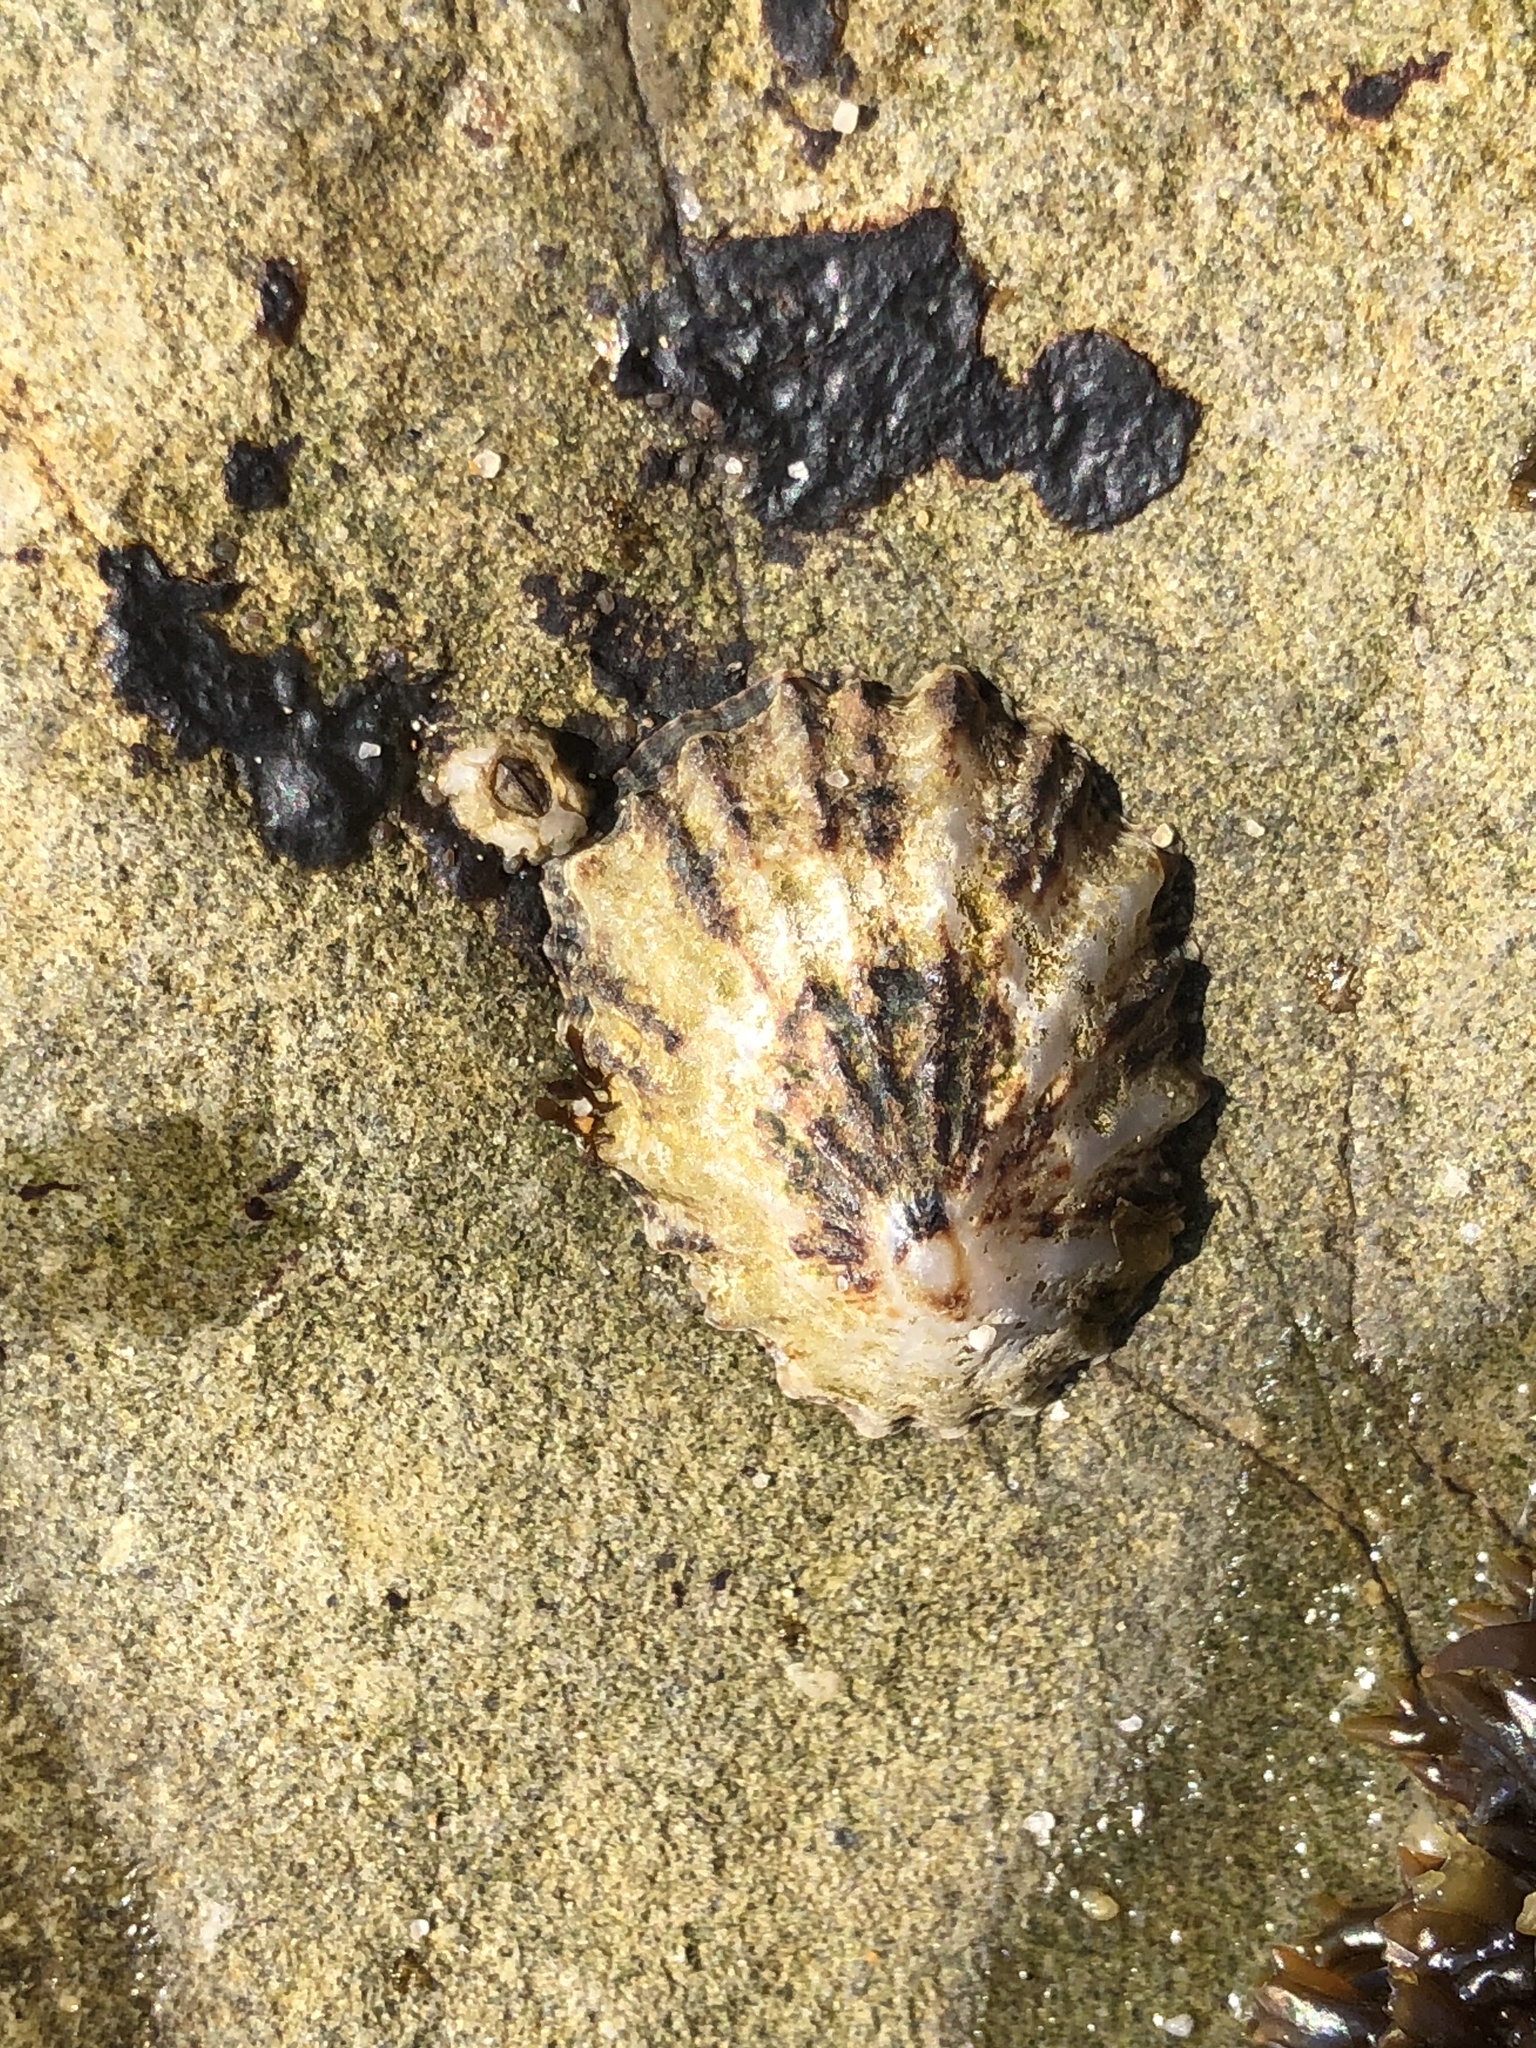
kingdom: Animalia
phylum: Mollusca
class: Gastropoda
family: Lottiidae
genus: Lottia
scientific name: Lottia scabra
